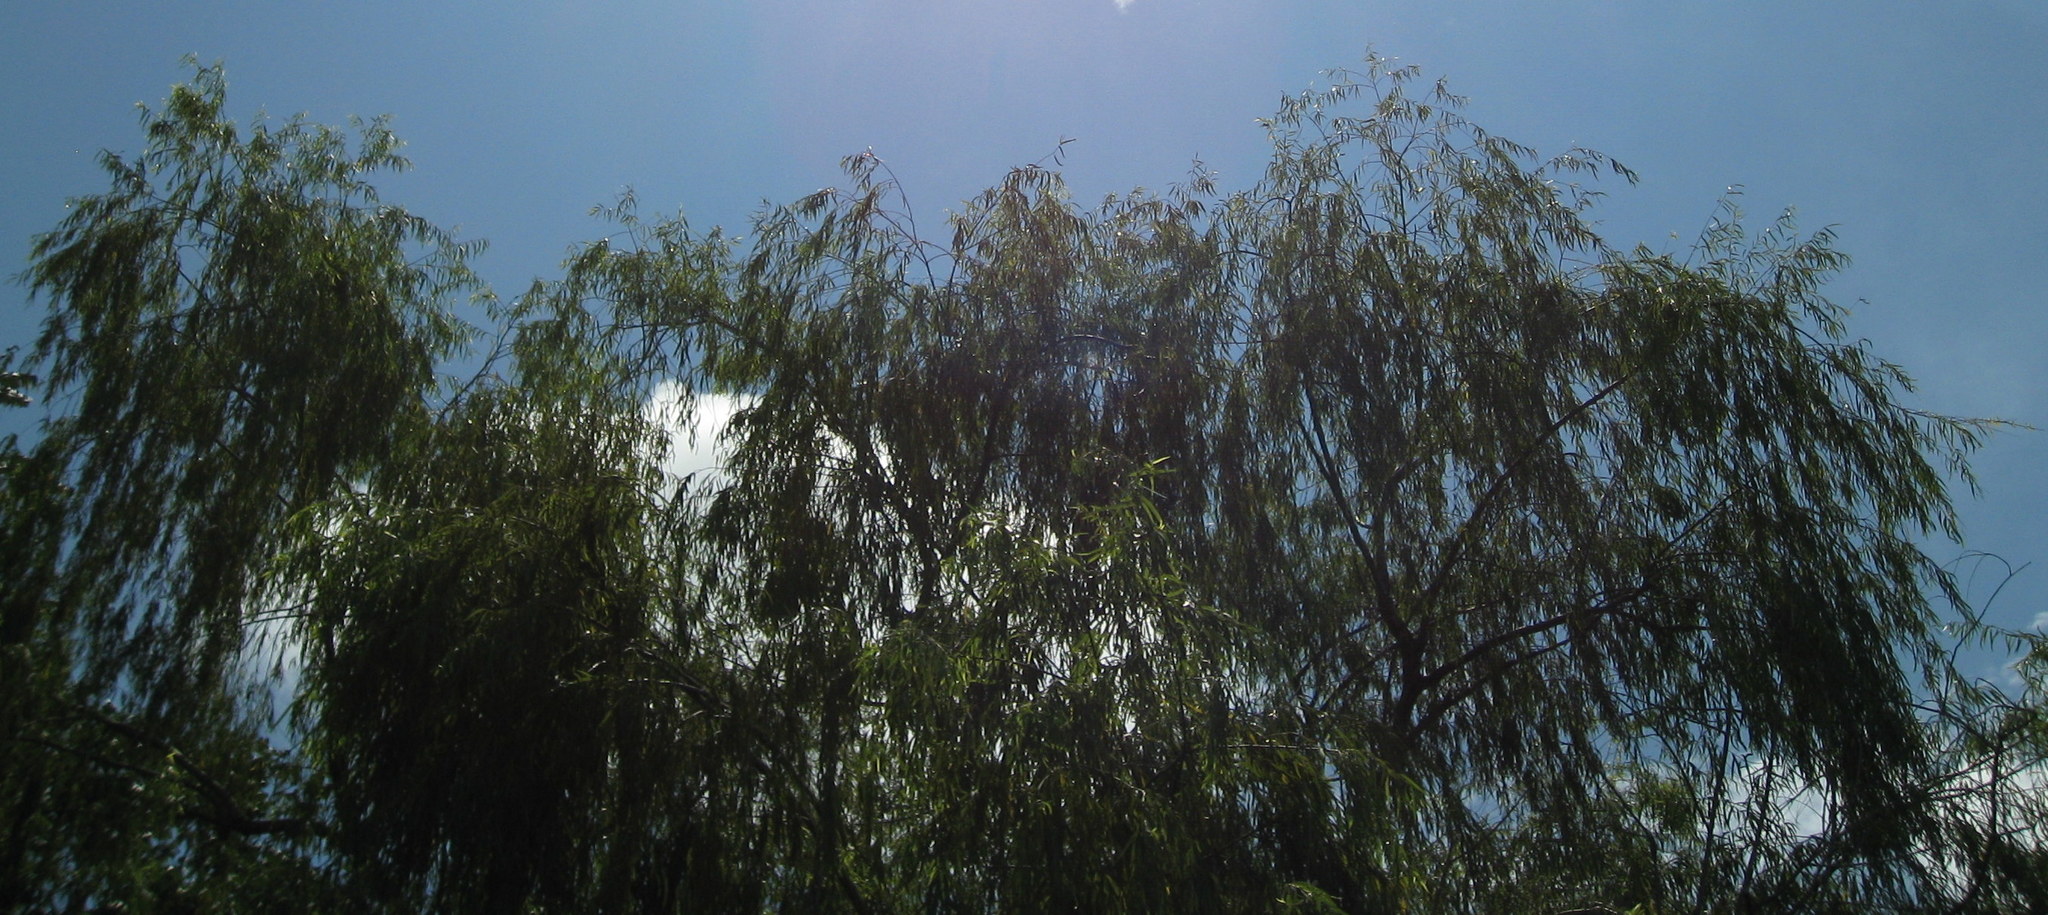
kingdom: Plantae
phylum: Tracheophyta
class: Magnoliopsida
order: Malpighiales
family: Salicaceae
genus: Salix
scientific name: Salix humboldtiana
